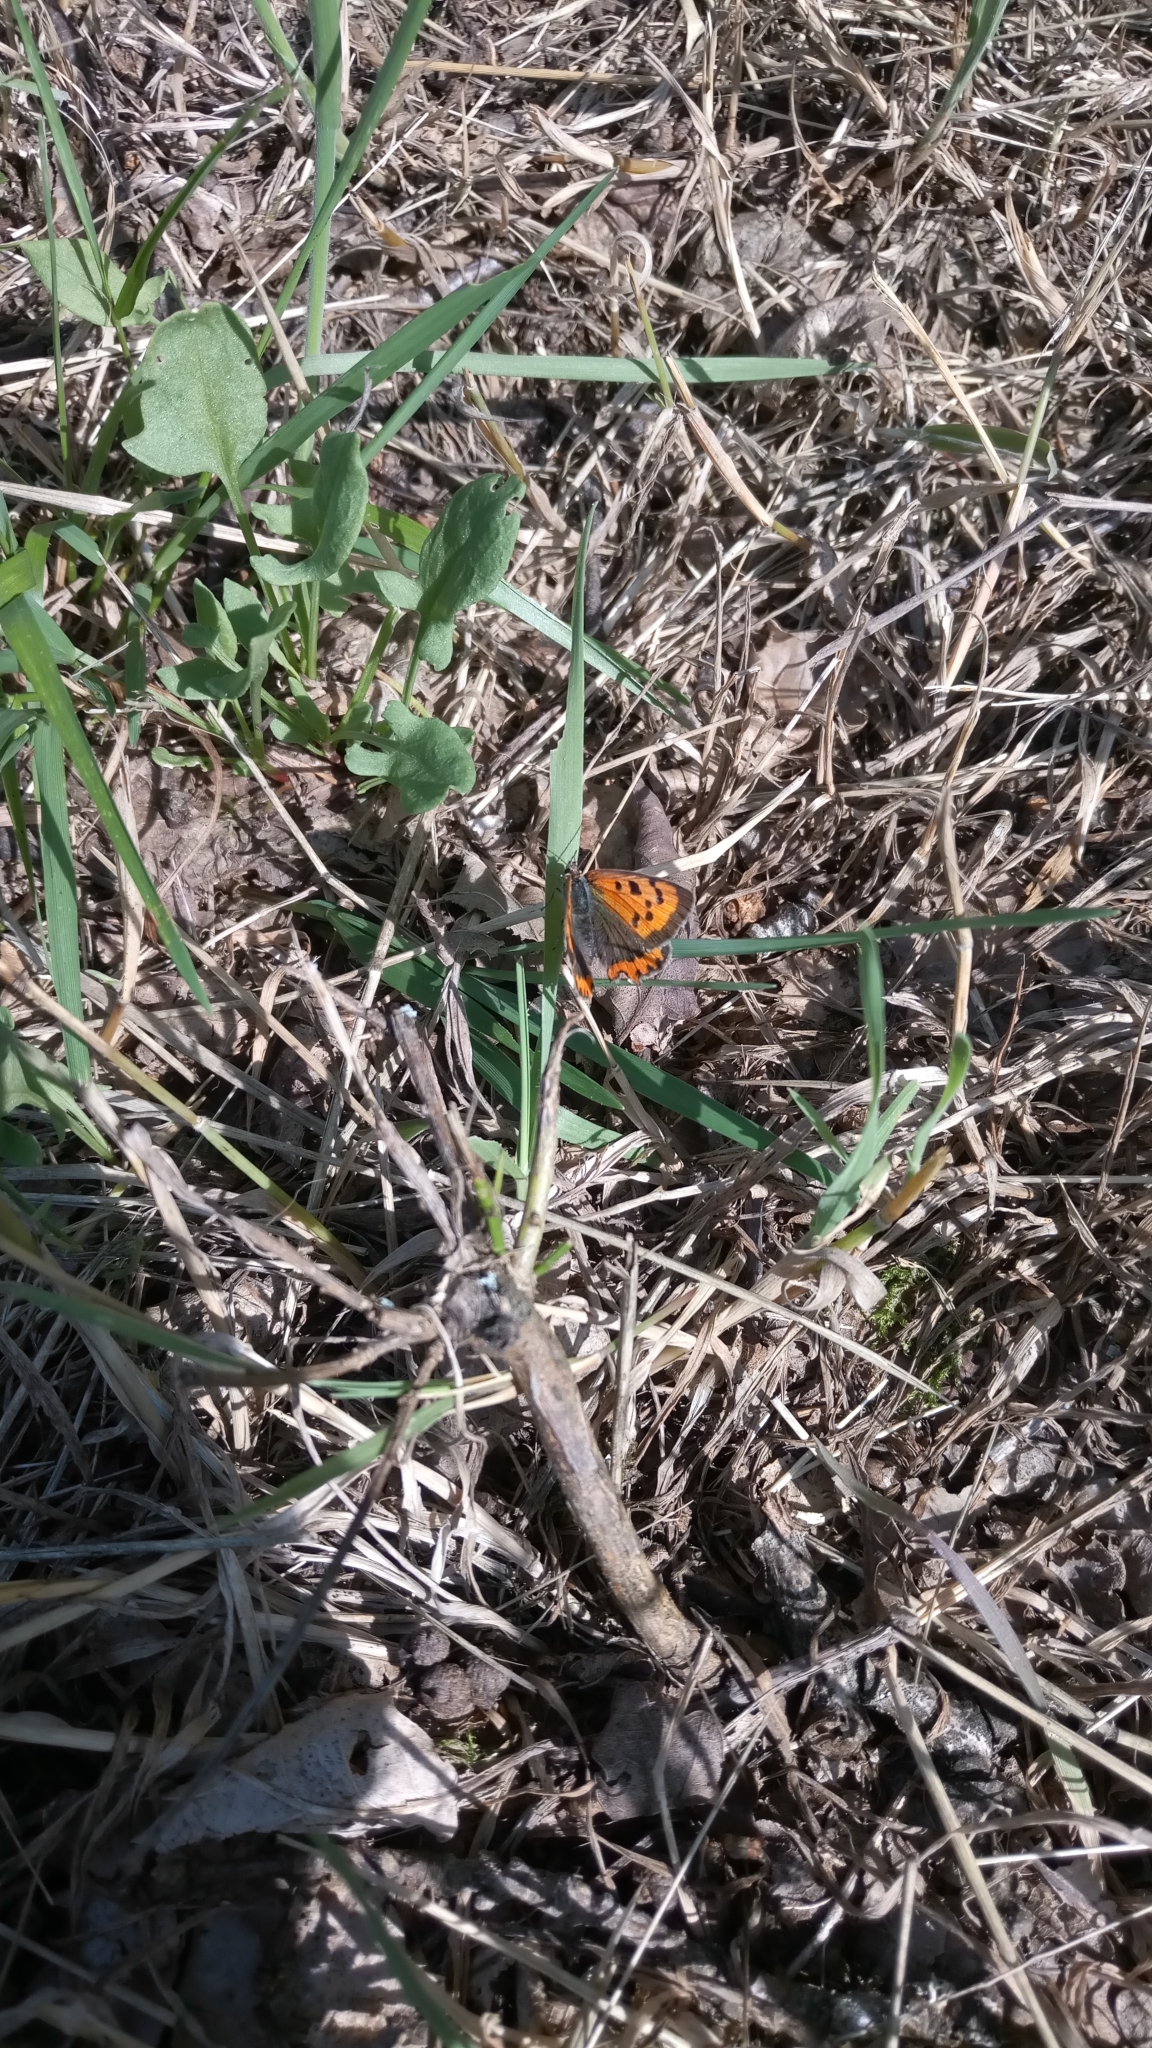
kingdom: Animalia
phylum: Arthropoda
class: Insecta
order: Lepidoptera
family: Lycaenidae
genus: Lycaena
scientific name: Lycaena phlaeas
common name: Small copper
